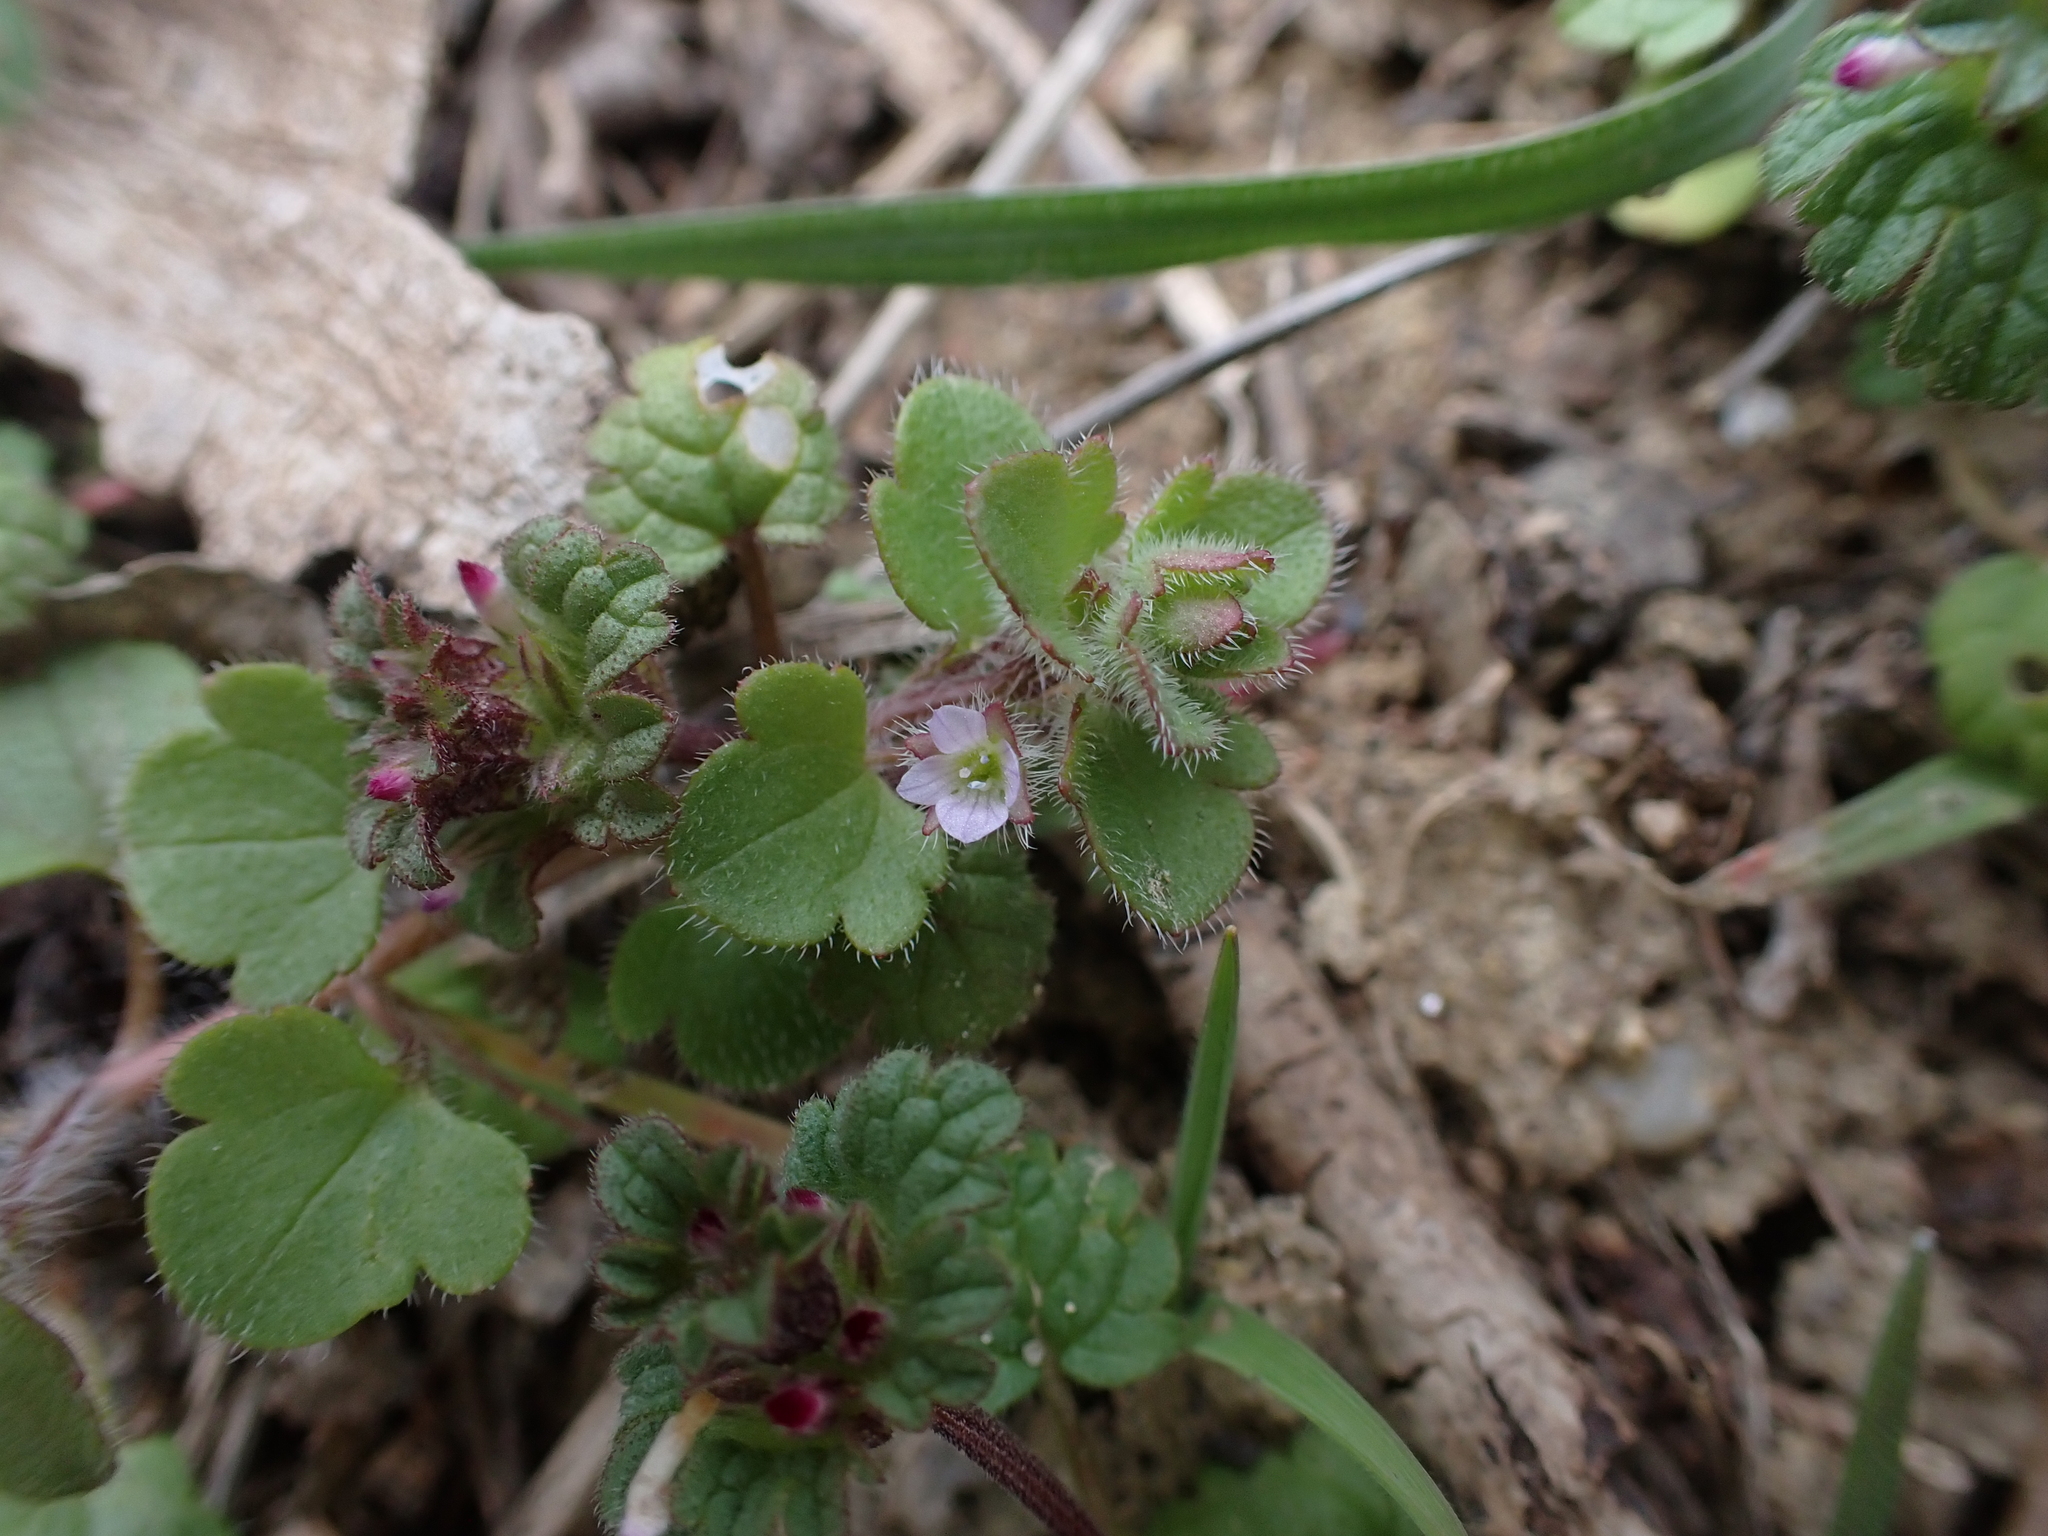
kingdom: Plantae
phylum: Tracheophyta
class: Magnoliopsida
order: Lamiales
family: Plantaginaceae
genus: Veronica
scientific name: Veronica sublobata
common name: False ivy-leaved speedwell
